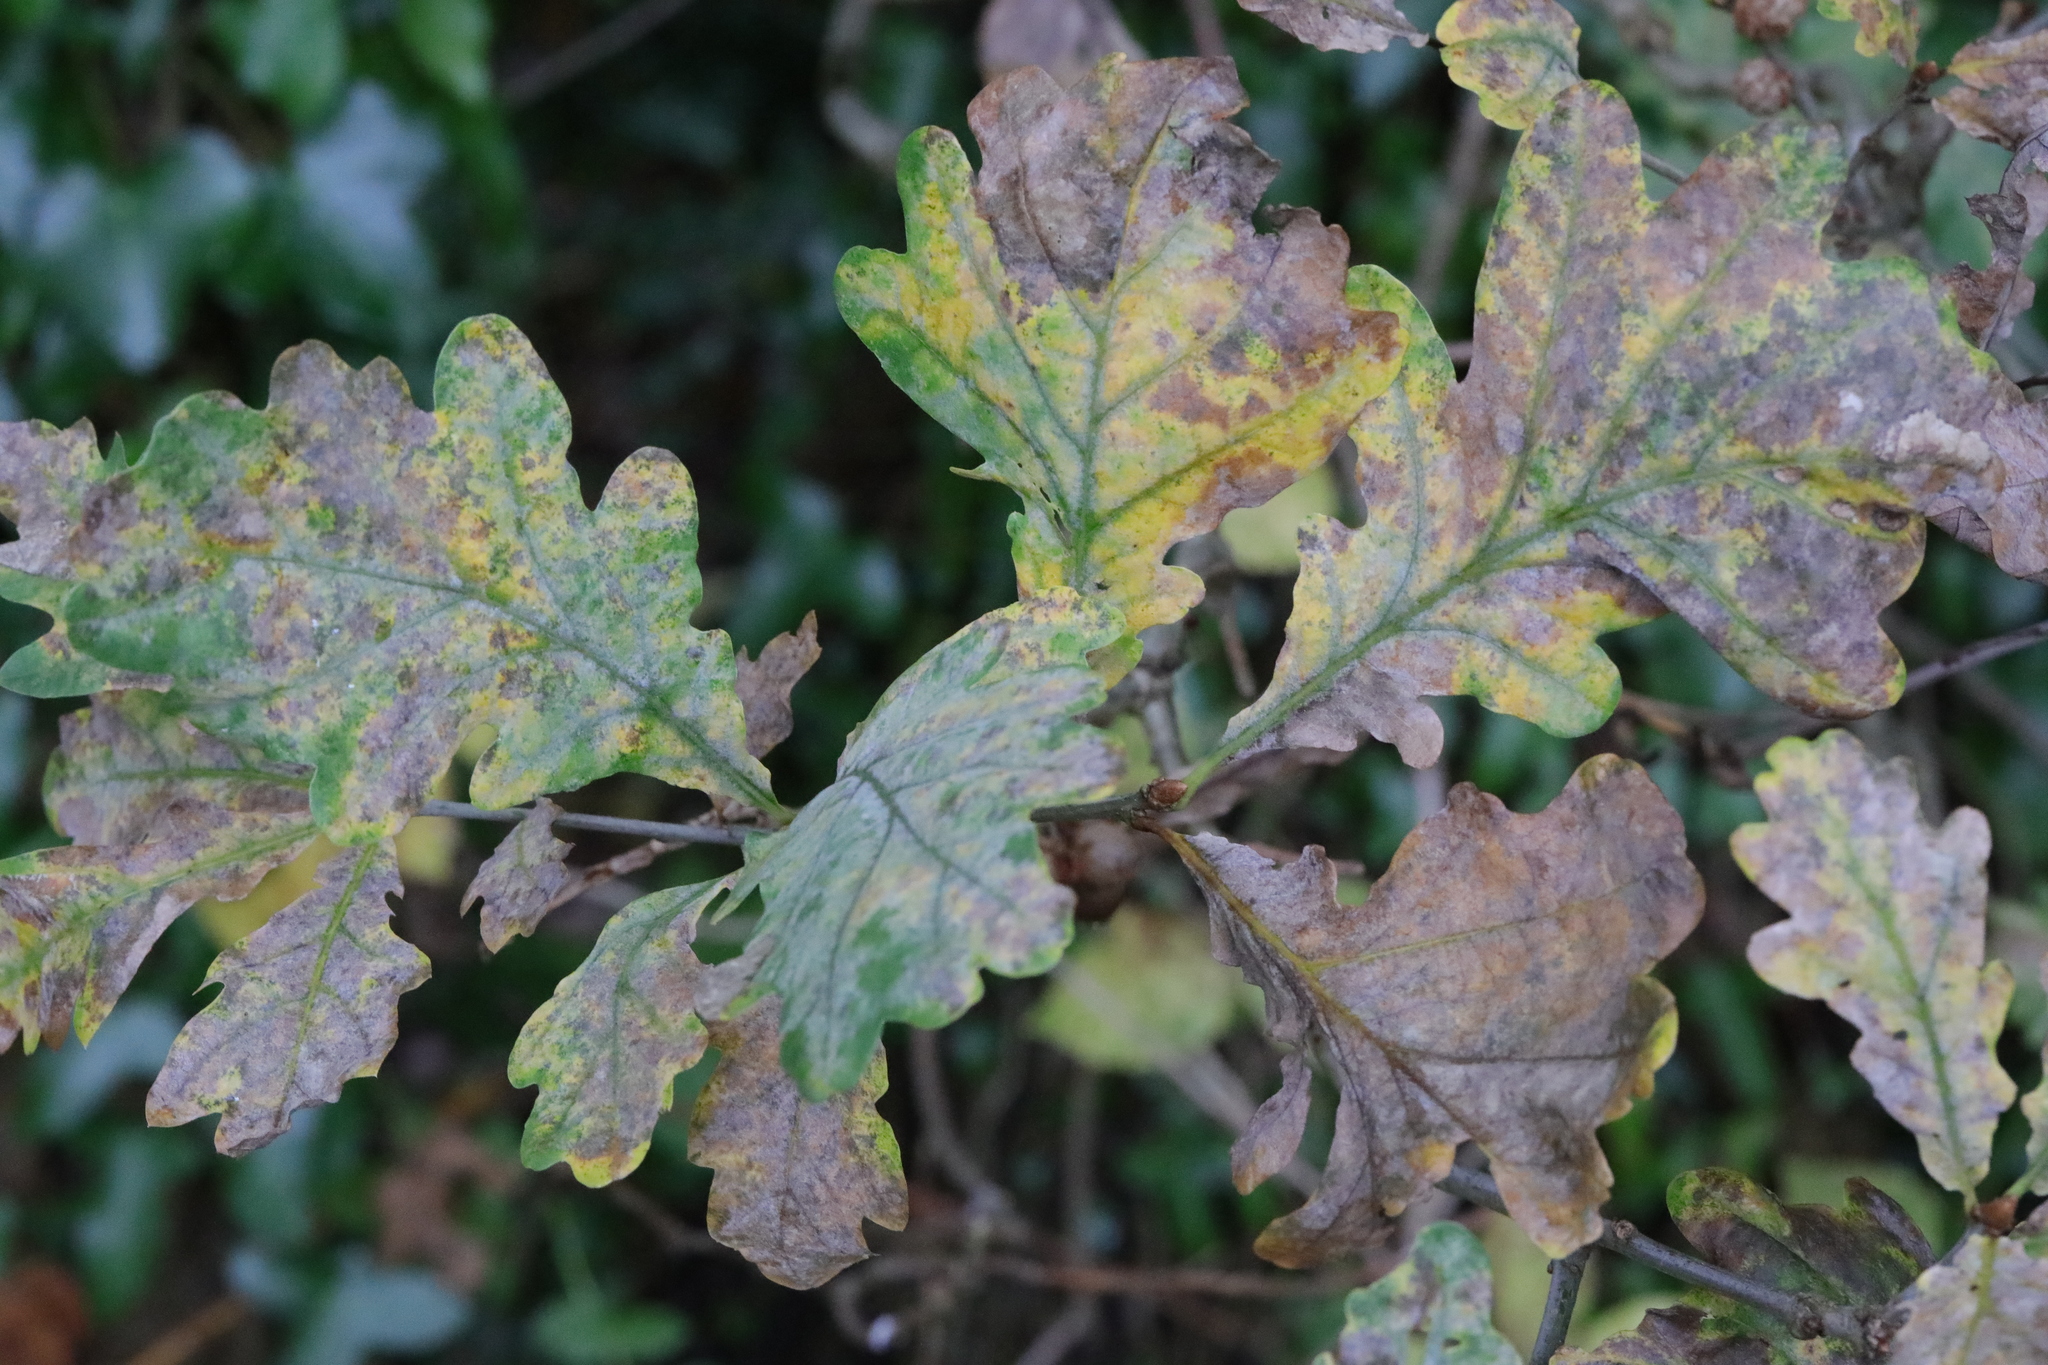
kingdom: Fungi
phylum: Ascomycota
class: Leotiomycetes
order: Helotiales
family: Erysiphaceae
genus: Erysiphe
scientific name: Erysiphe alphitoides
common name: Oak mildew
